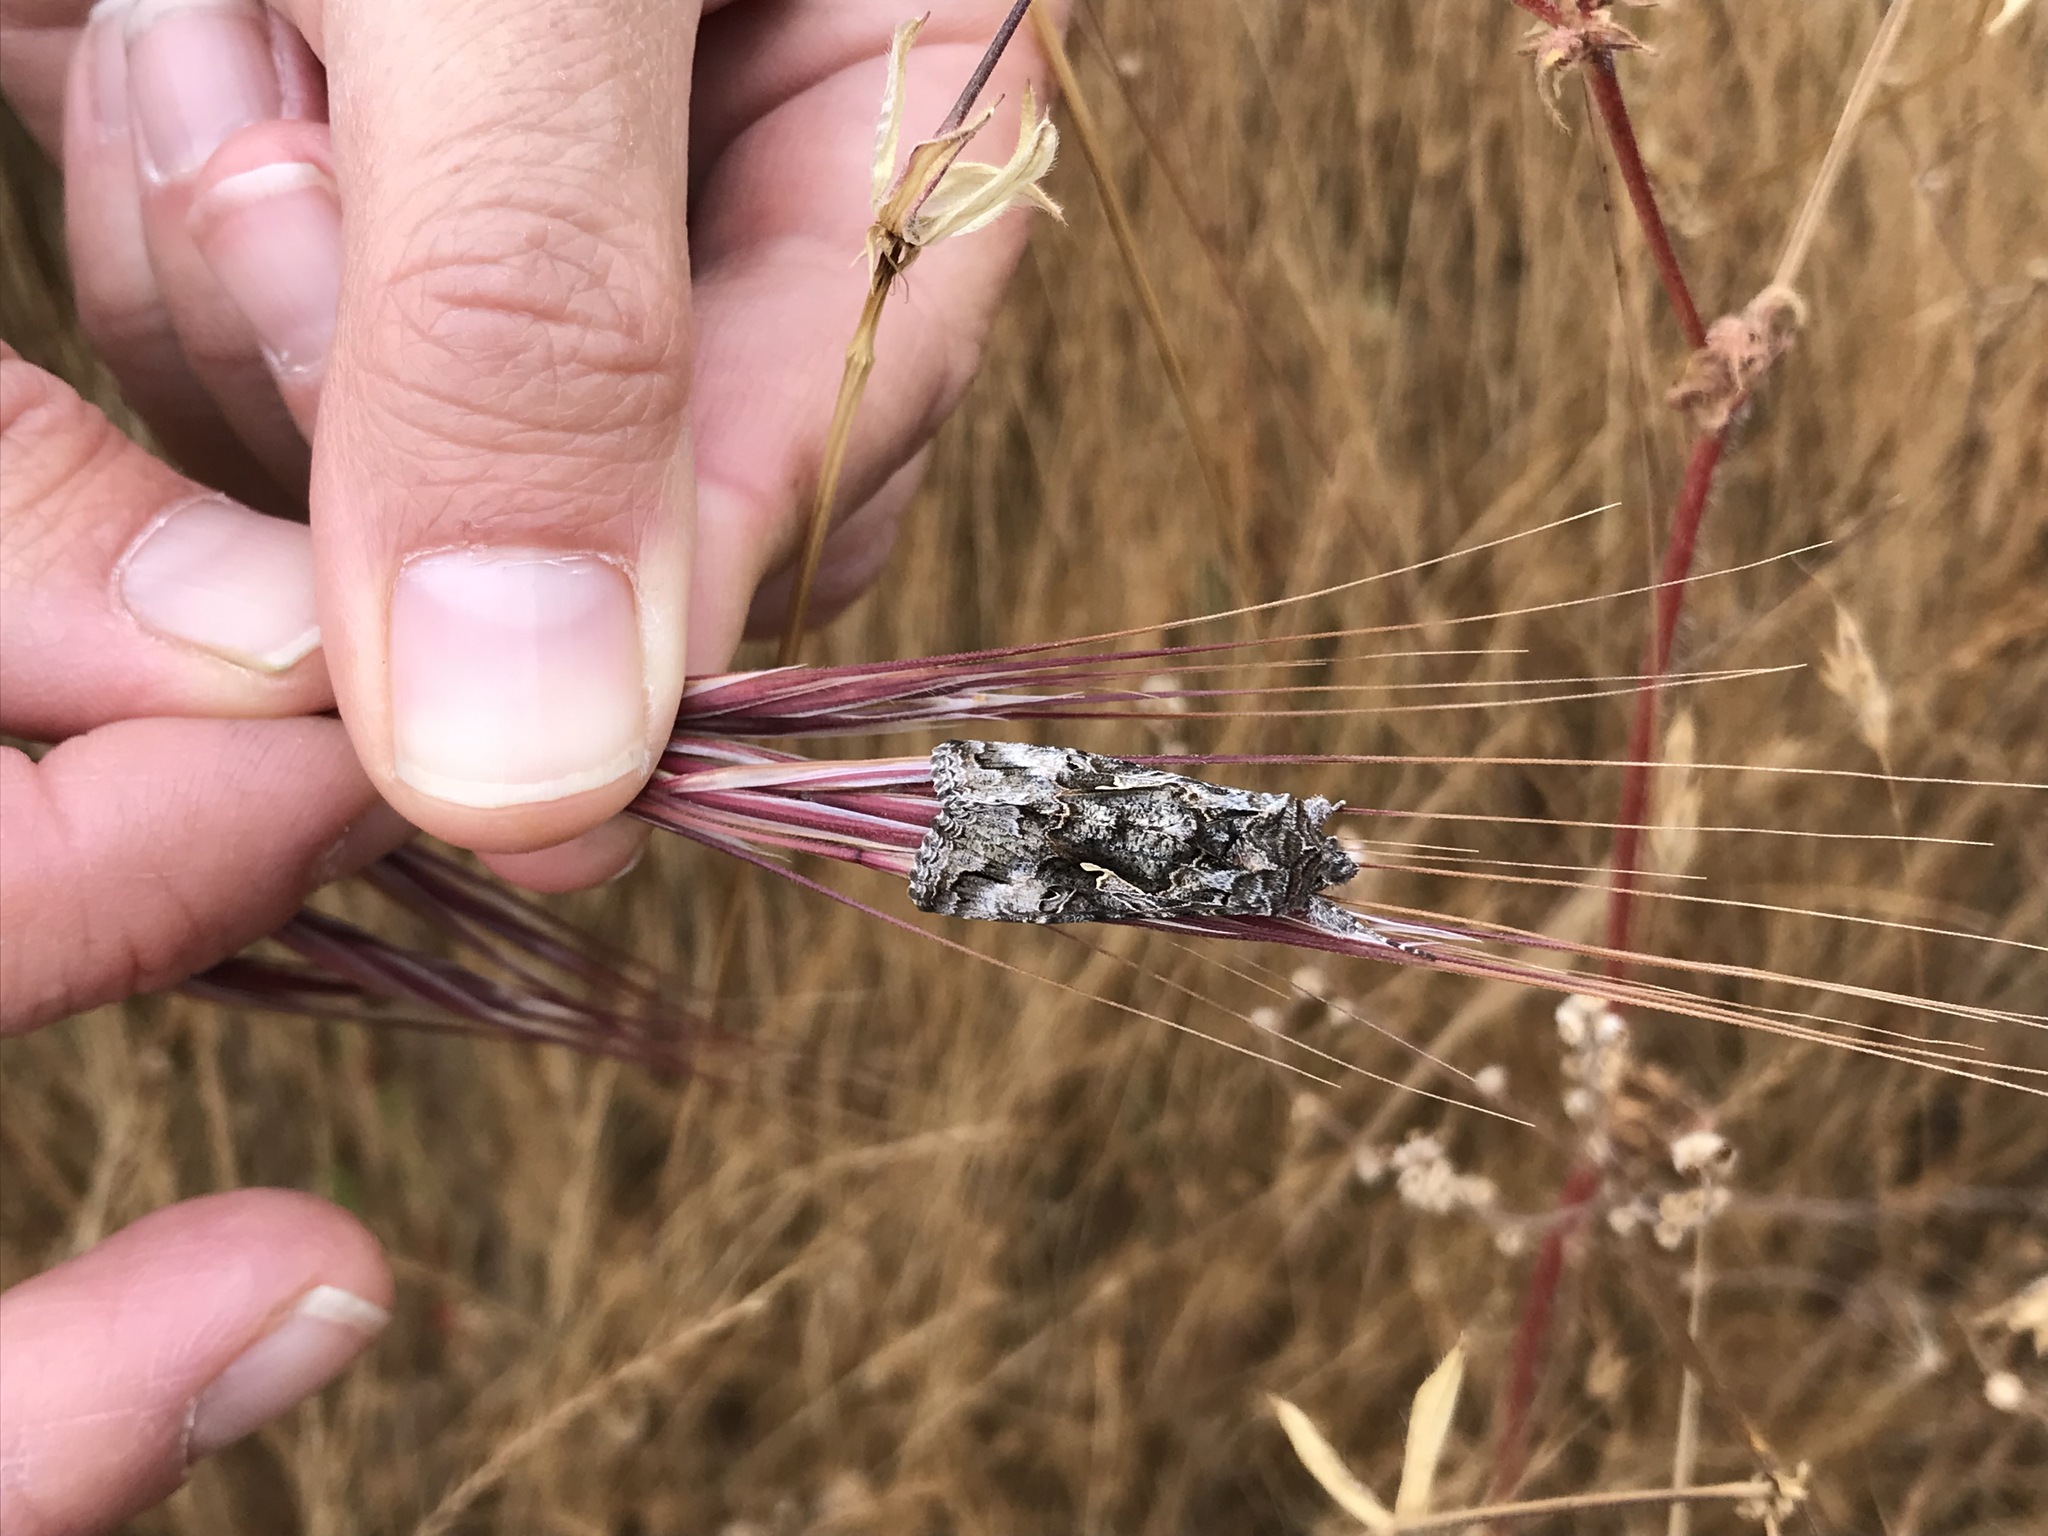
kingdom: Animalia
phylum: Arthropoda
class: Insecta
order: Lepidoptera
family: Noctuidae
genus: Autographa
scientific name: Autographa californica
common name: Alfalfa looper
